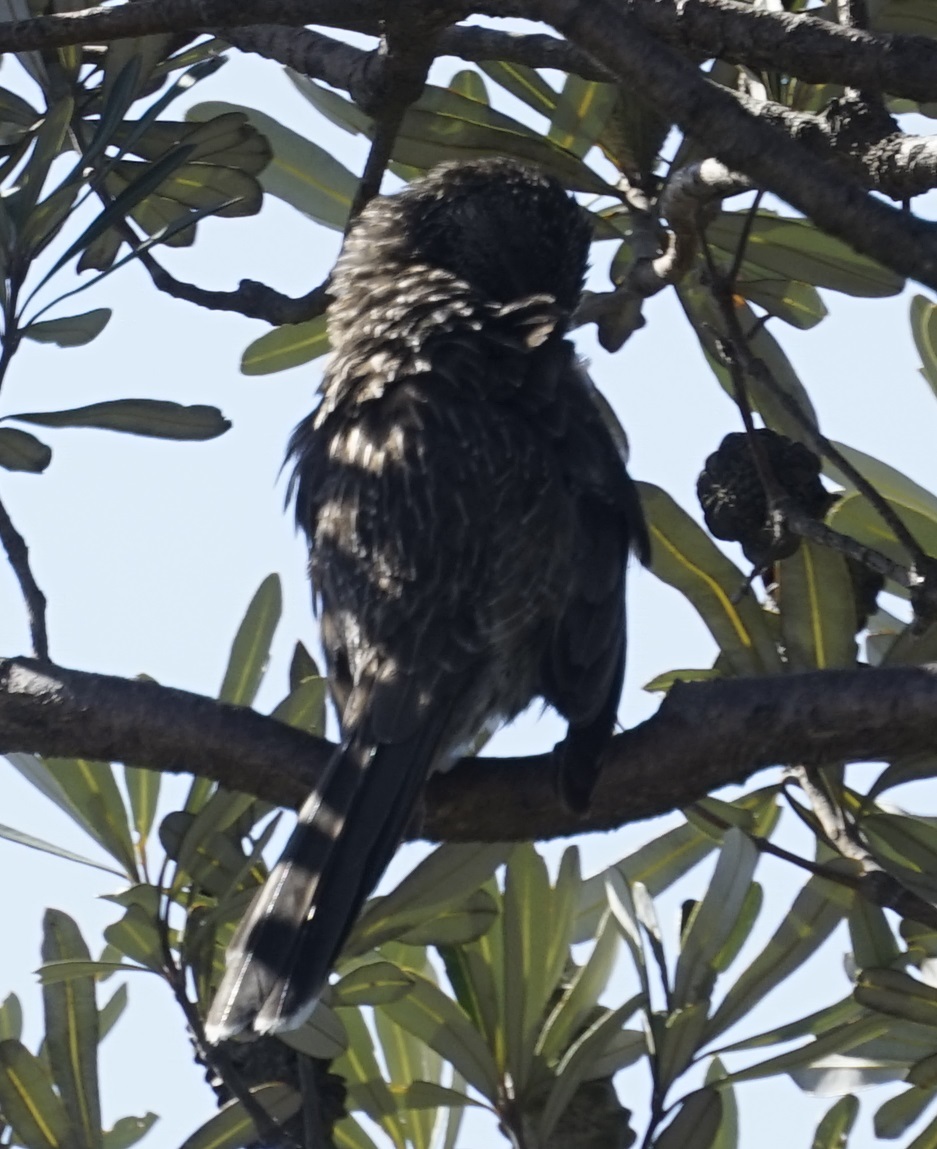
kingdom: Animalia
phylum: Chordata
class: Aves
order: Passeriformes
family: Meliphagidae
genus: Anthochaera
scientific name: Anthochaera chrysoptera
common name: Little wattlebird
